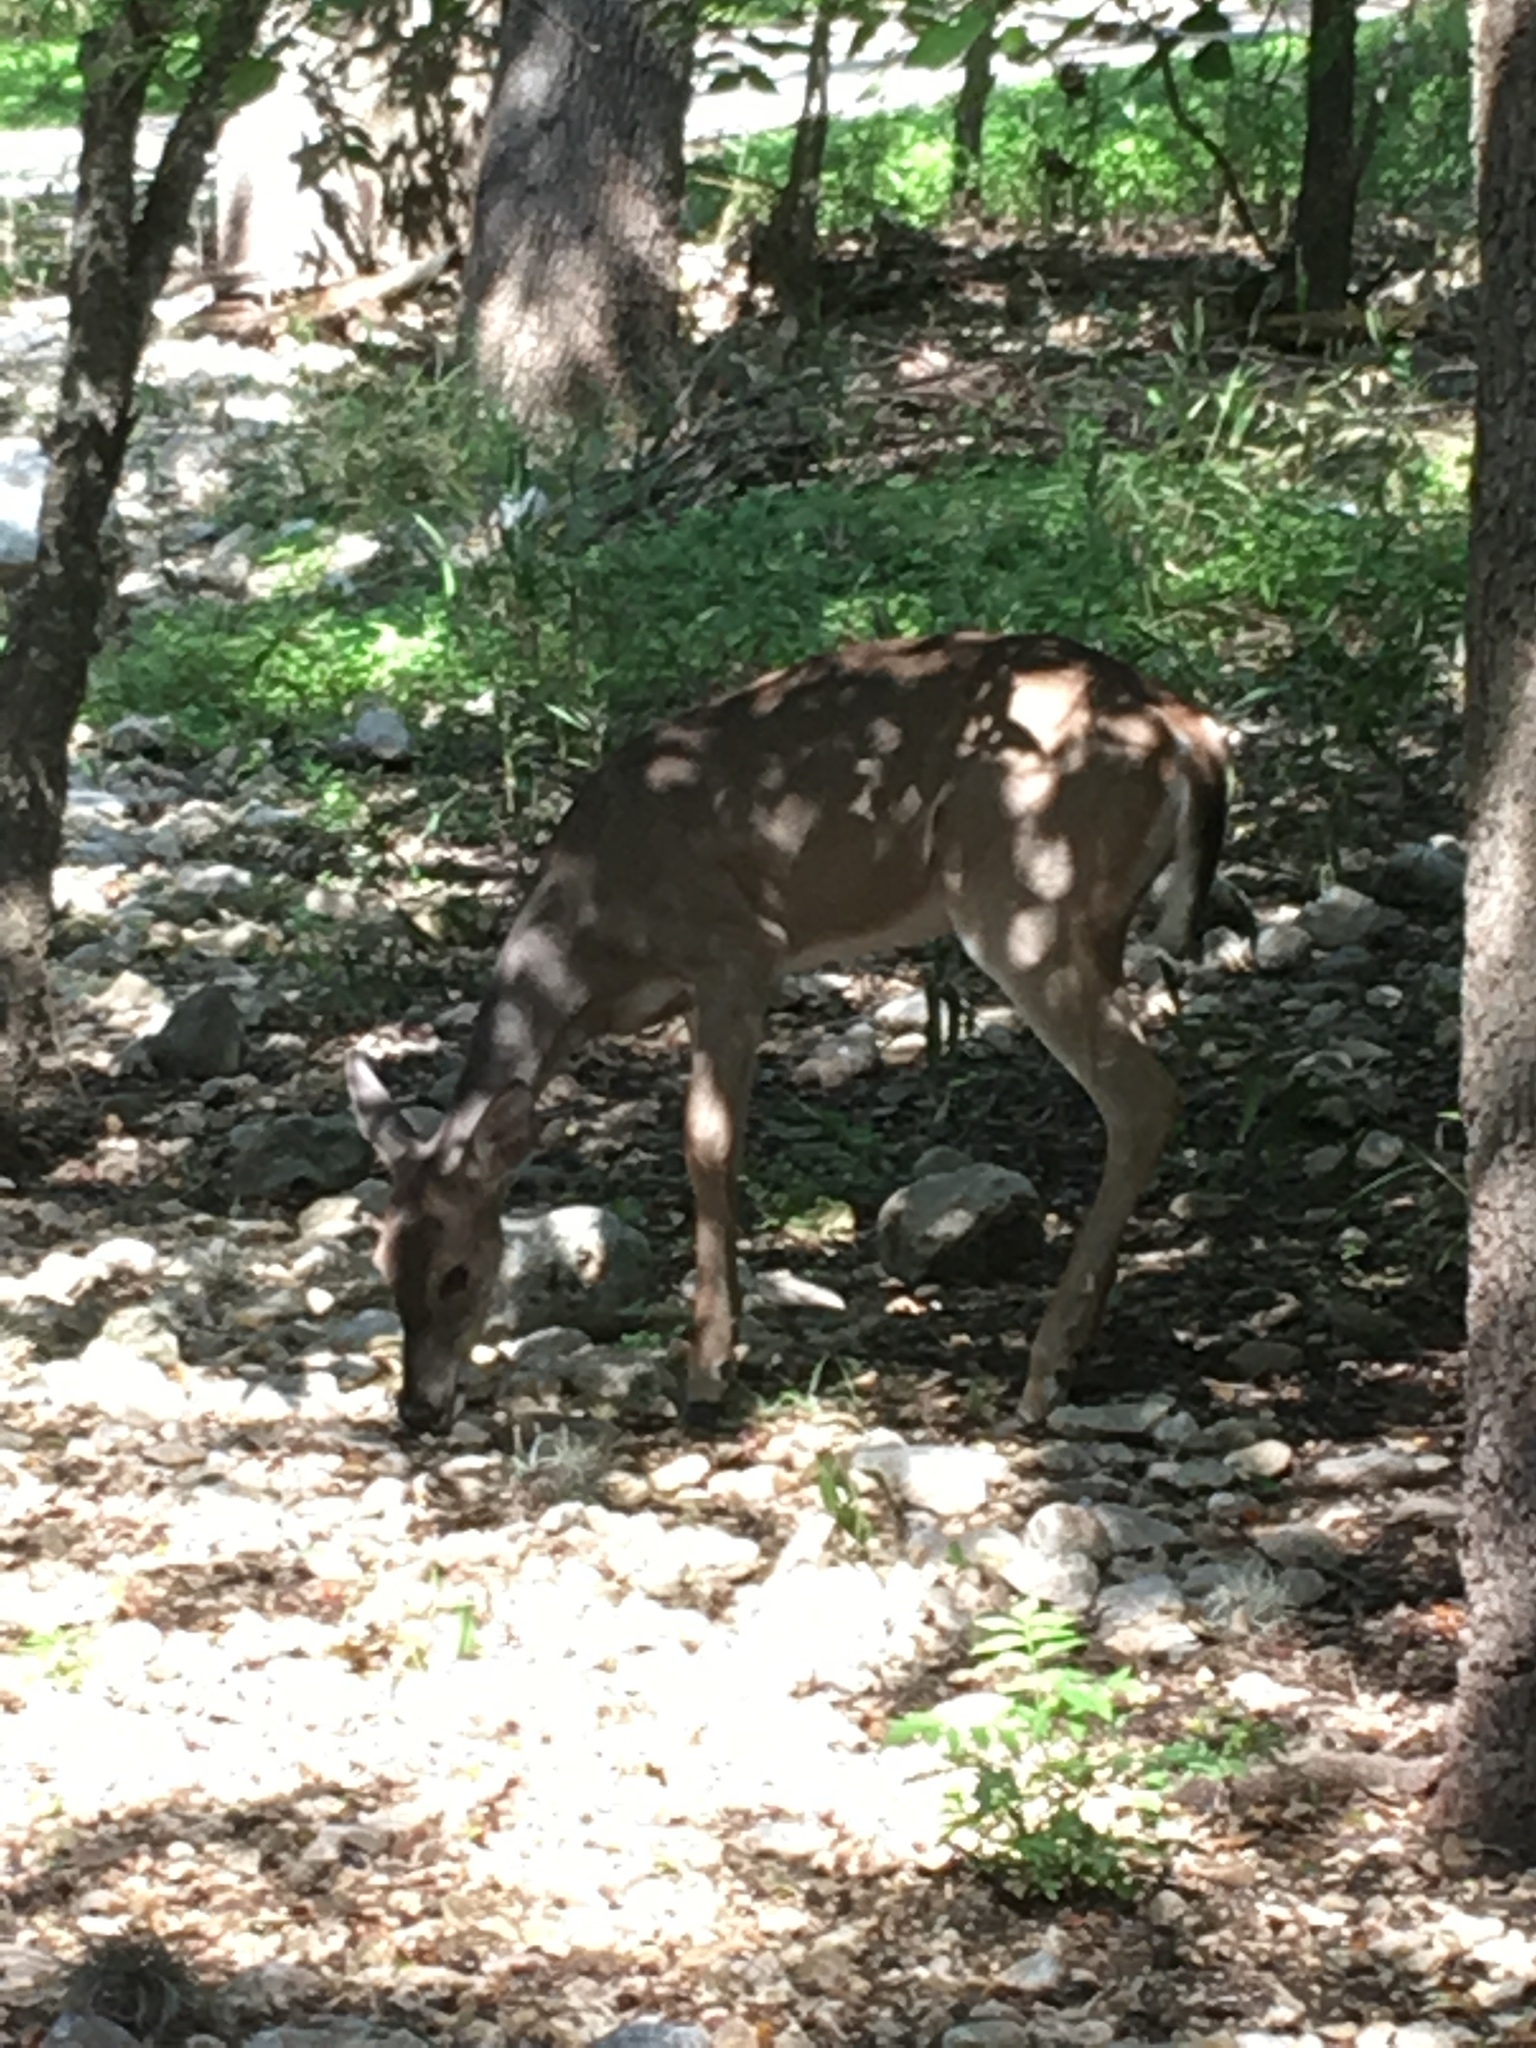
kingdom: Animalia
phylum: Chordata
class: Mammalia
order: Artiodactyla
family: Cervidae
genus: Odocoileus
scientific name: Odocoileus virginianus
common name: White-tailed deer
